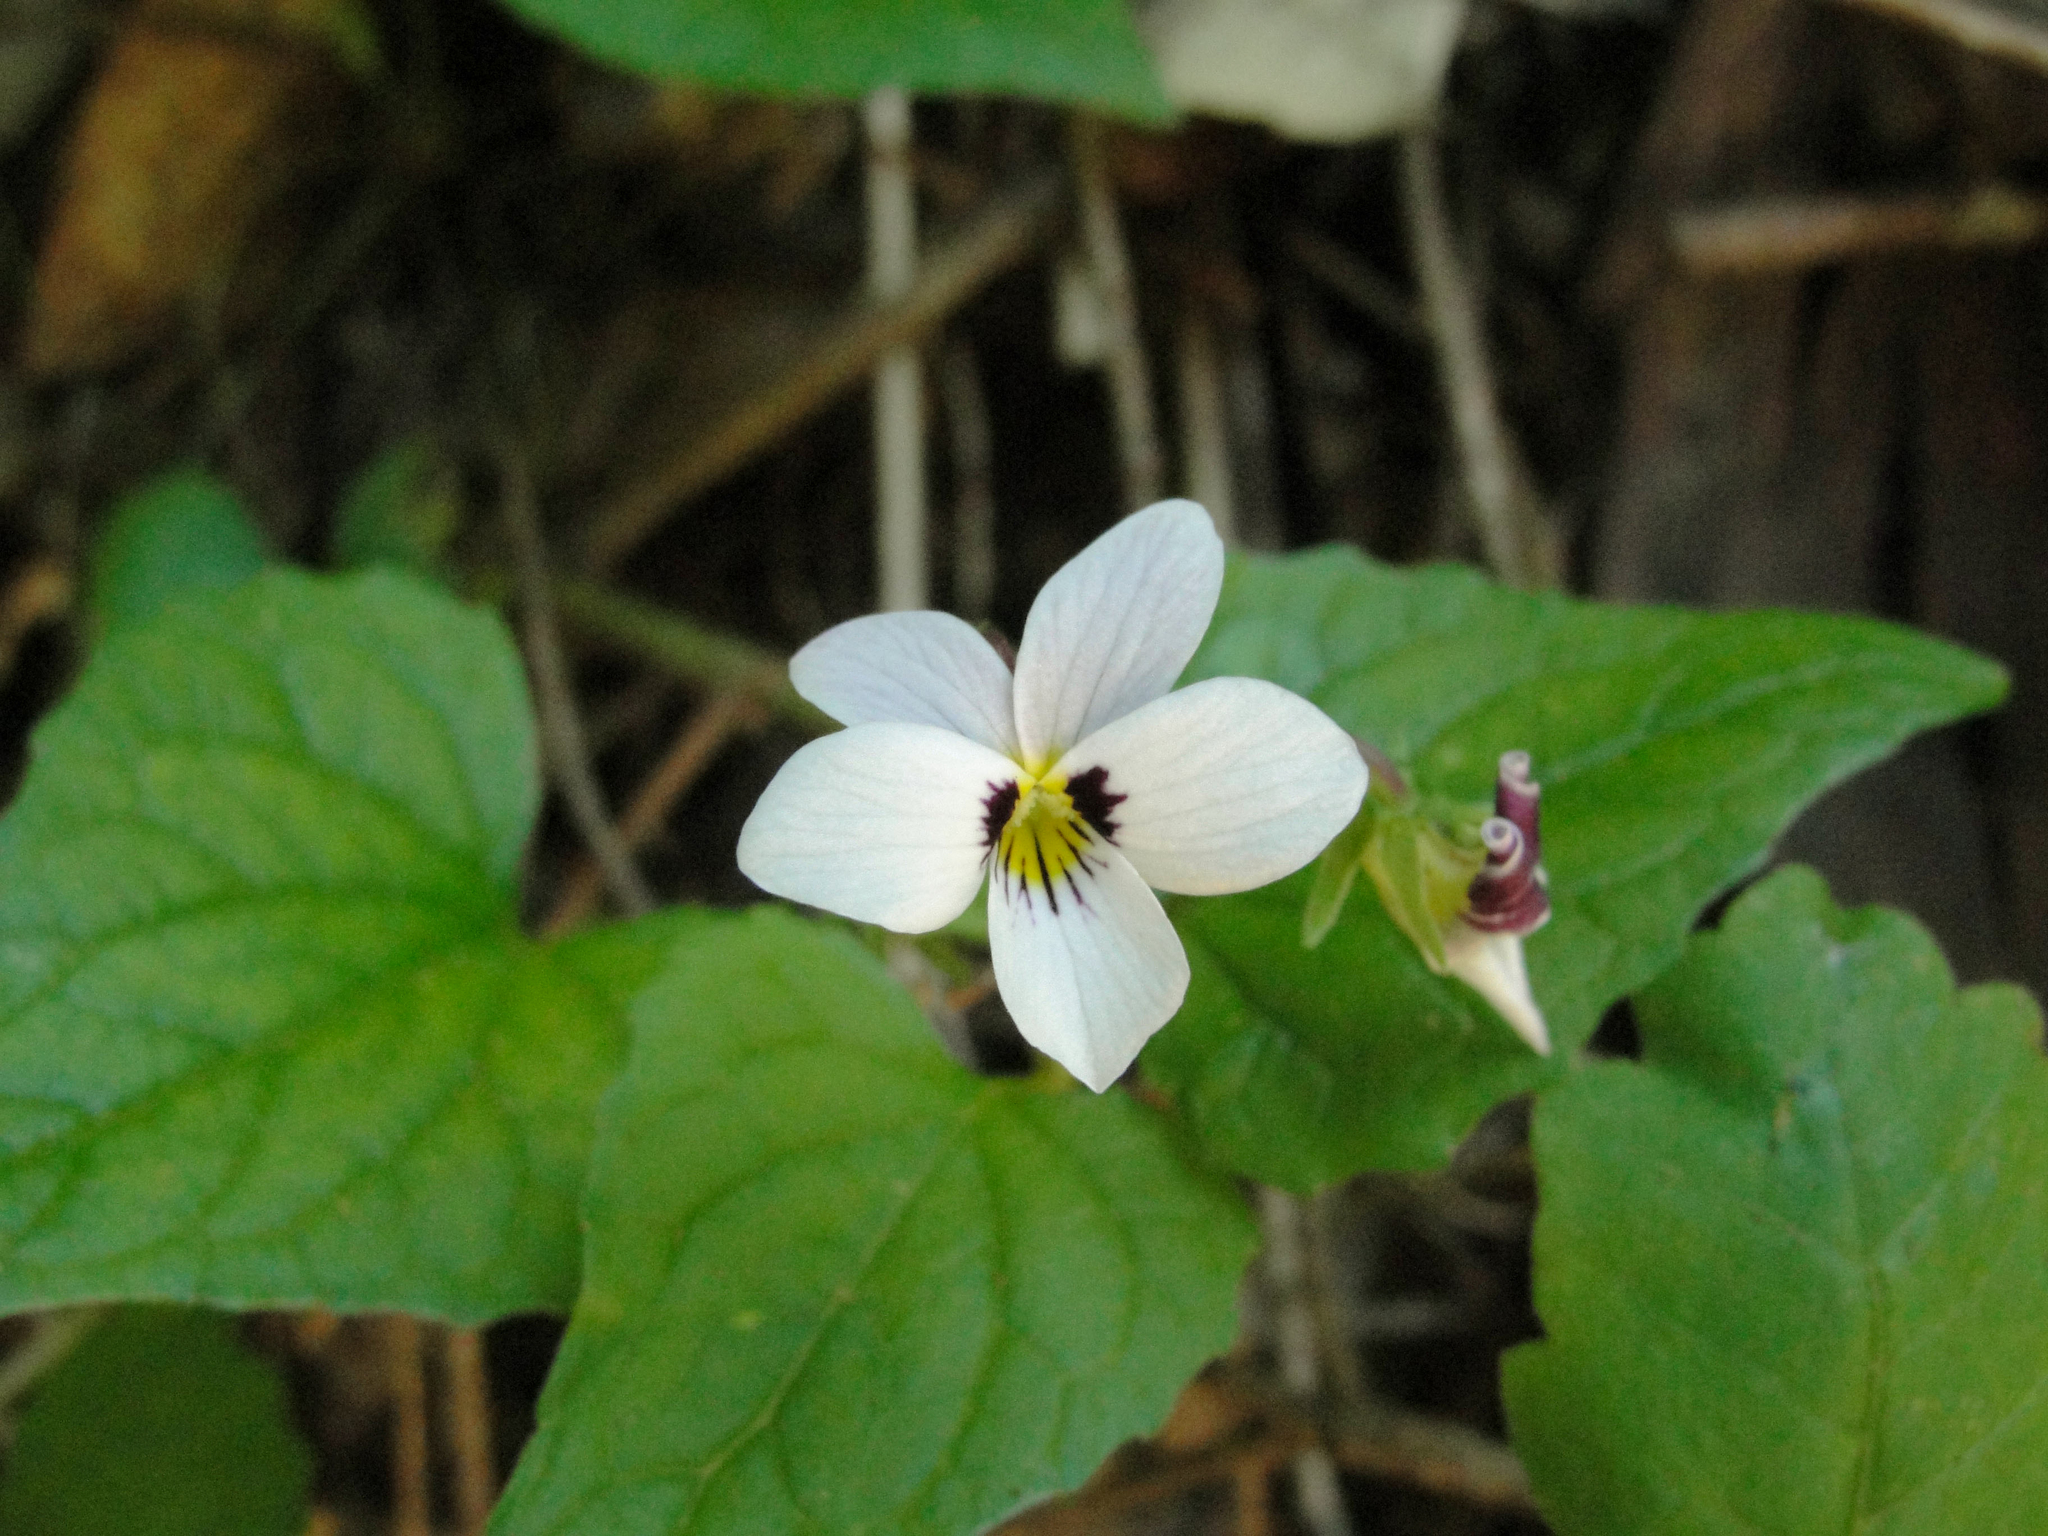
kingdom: Plantae
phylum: Tracheophyta
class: Magnoliopsida
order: Malpighiales
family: Violaceae
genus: Viola
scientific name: Viola ocellata
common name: Western heart's ease
